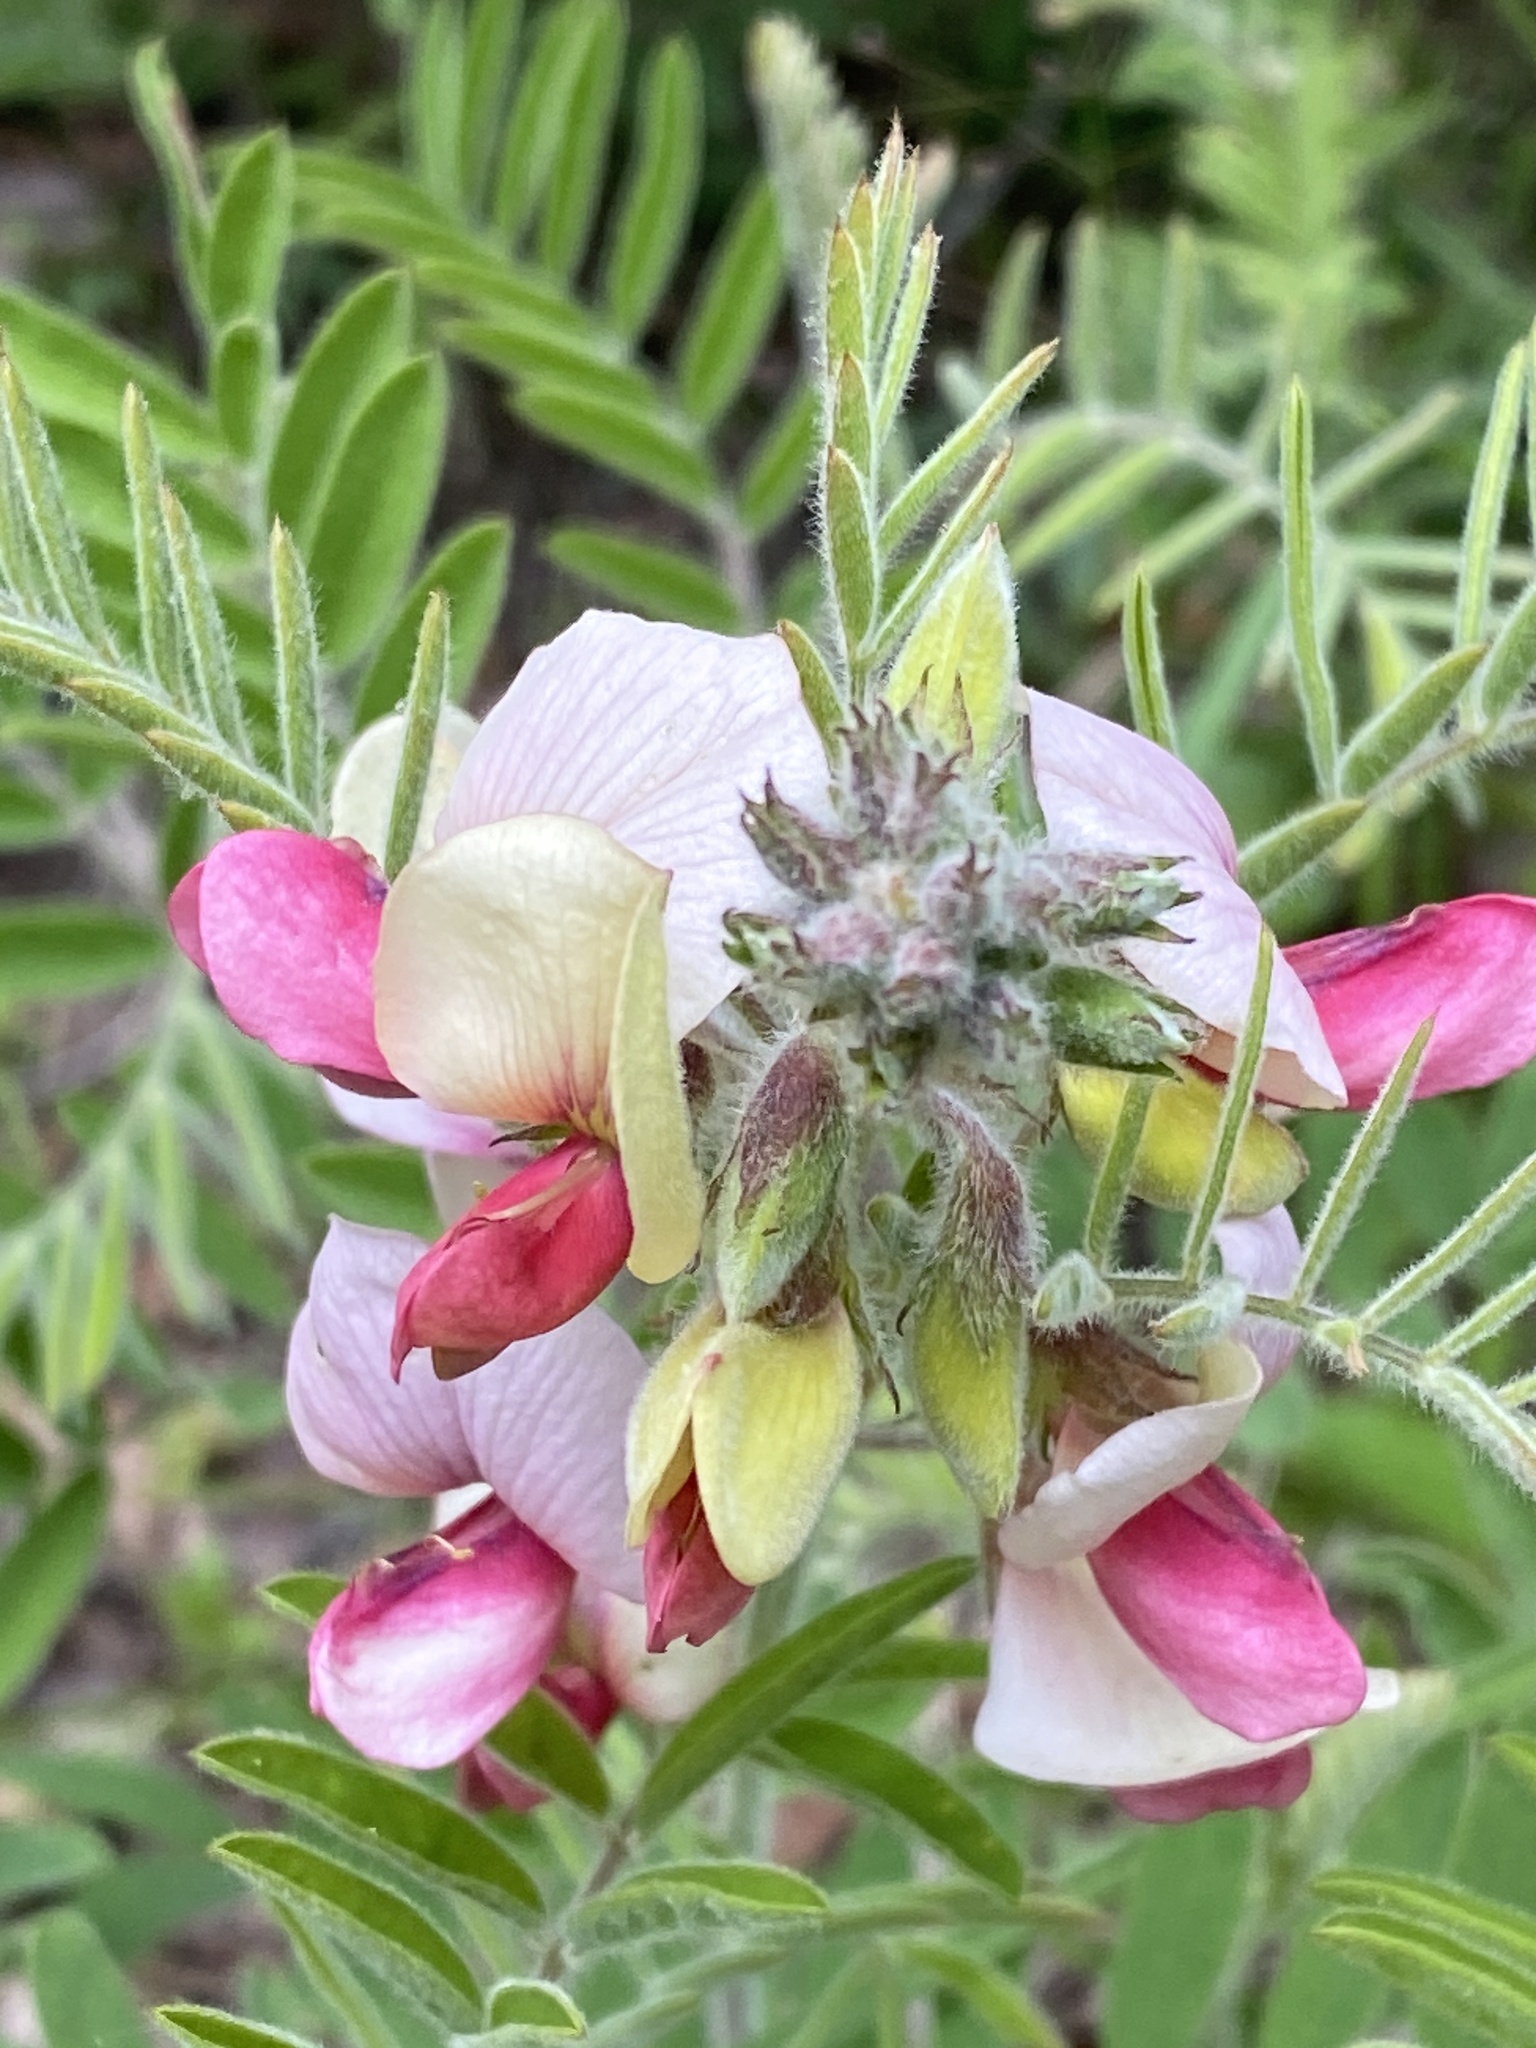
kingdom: Plantae
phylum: Tracheophyta
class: Magnoliopsida
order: Fabales
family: Fabaceae
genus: Tephrosia
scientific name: Tephrosia virginiana
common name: Rabbit-pea
